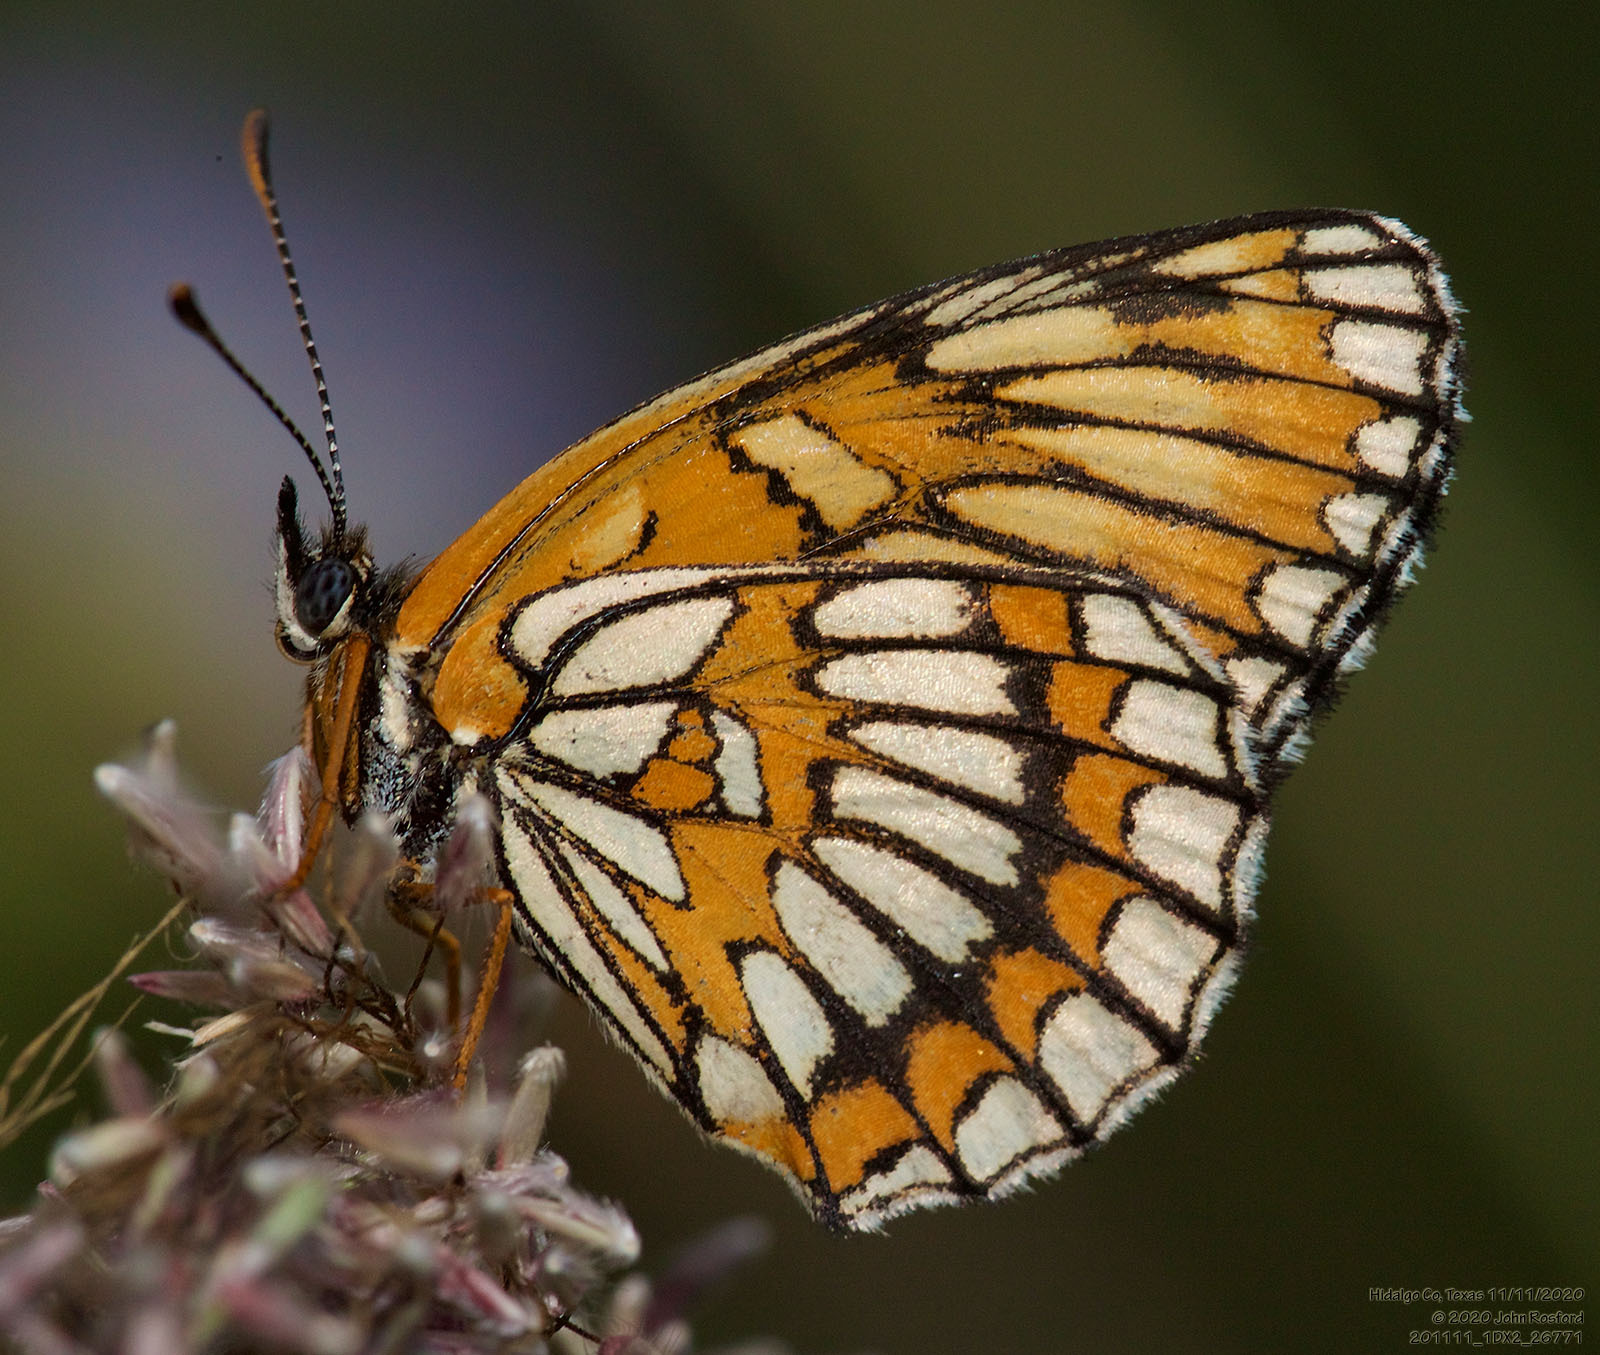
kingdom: Animalia
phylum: Arthropoda
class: Insecta
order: Lepidoptera
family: Nymphalidae
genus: Thessalia
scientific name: Thessalia theona
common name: Nymphalid moth
